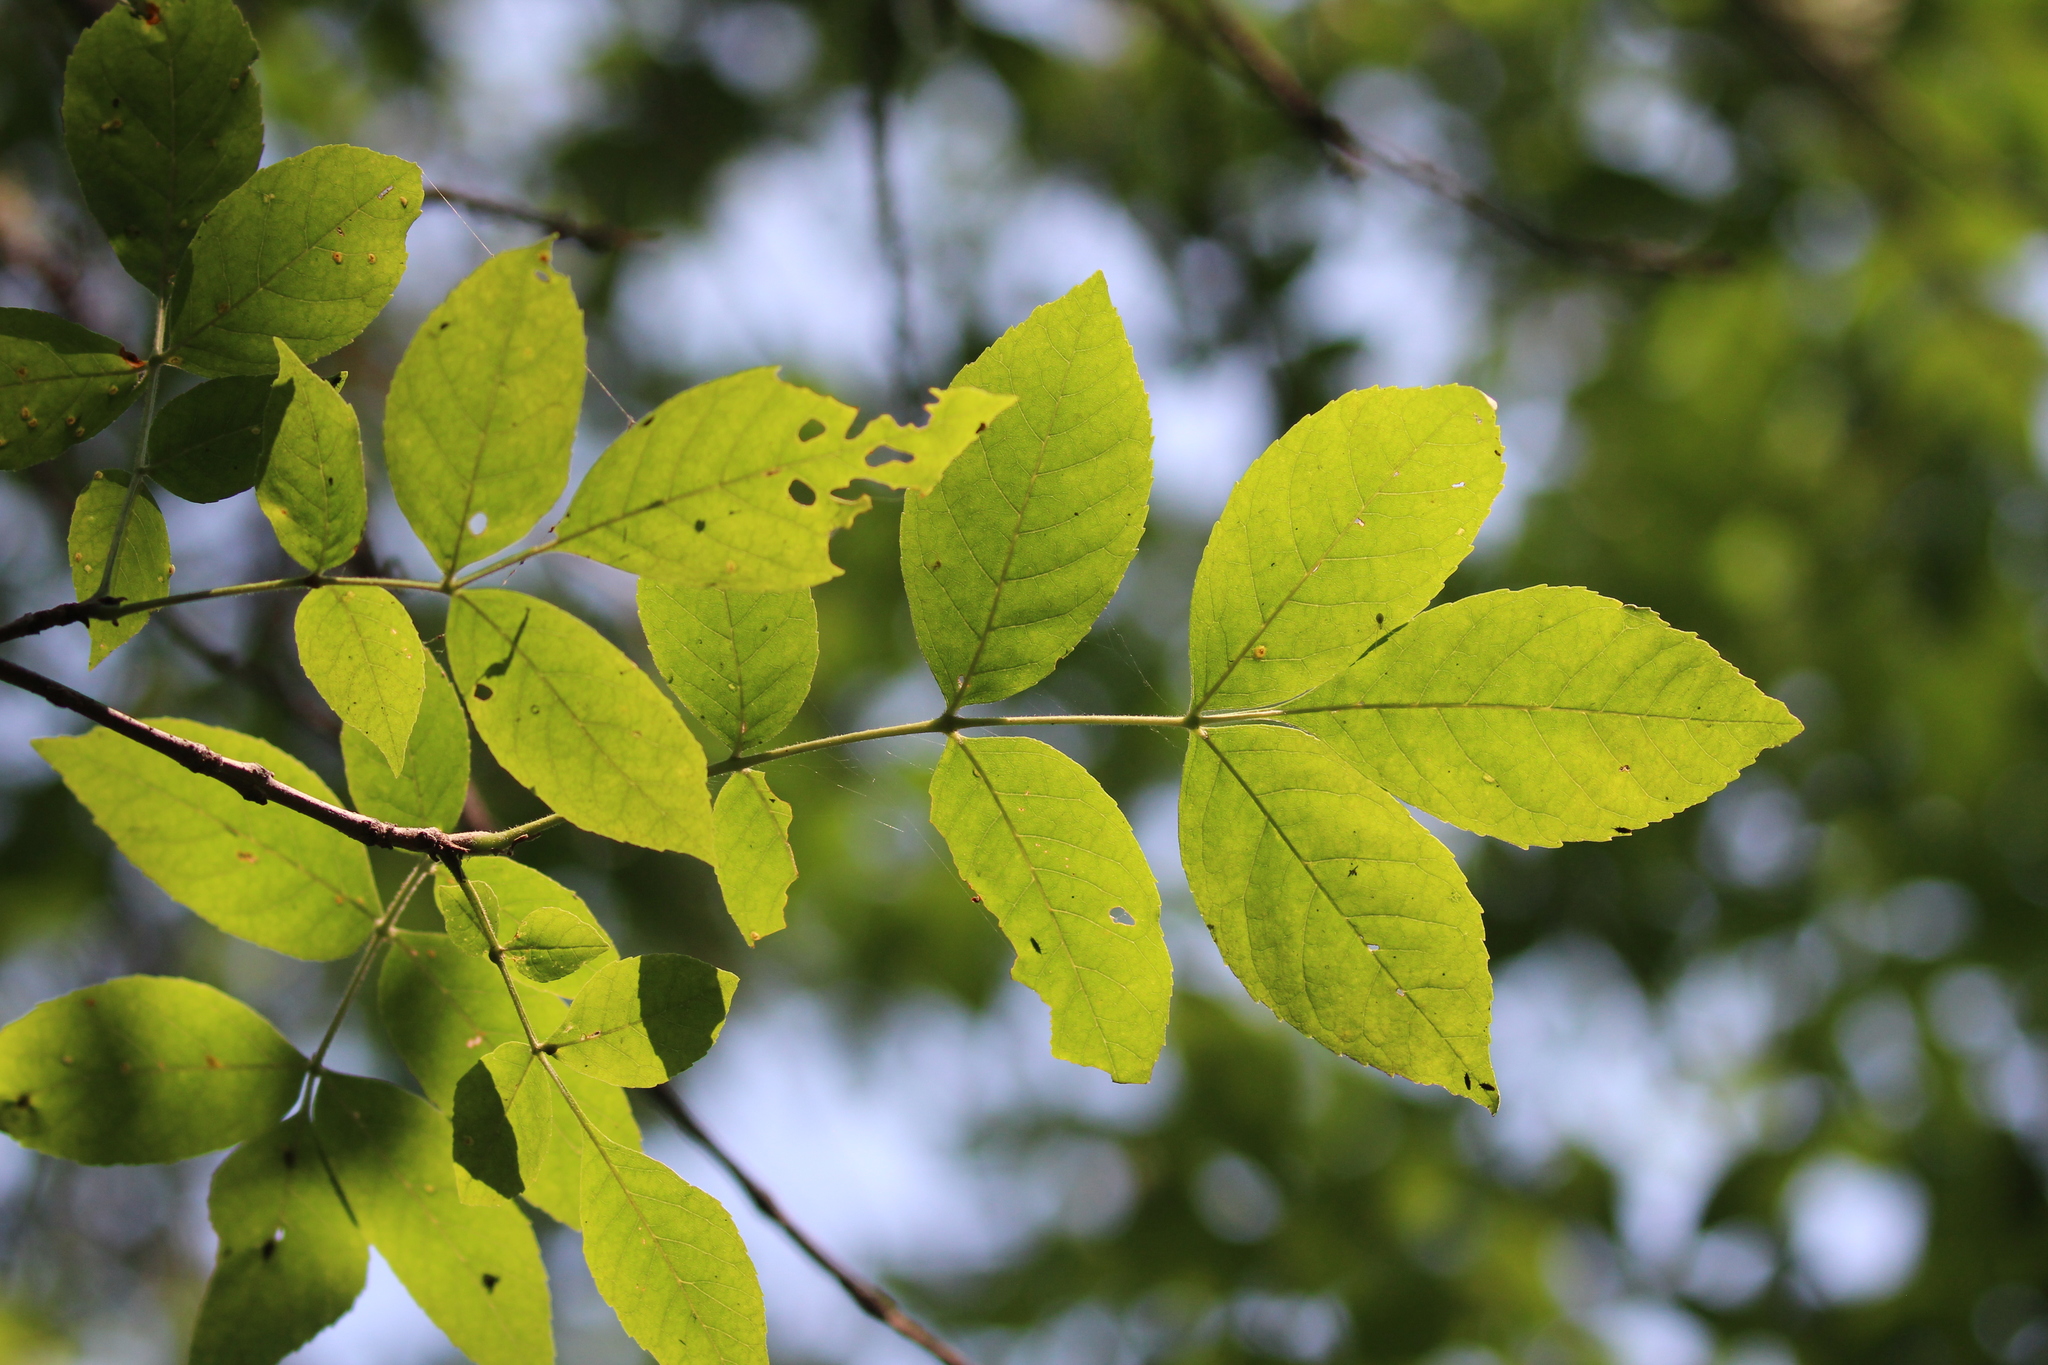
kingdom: Plantae
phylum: Tracheophyta
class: Magnoliopsida
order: Lamiales
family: Oleaceae
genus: Fraxinus
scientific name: Fraxinus pennsylvanica
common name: Green ash
